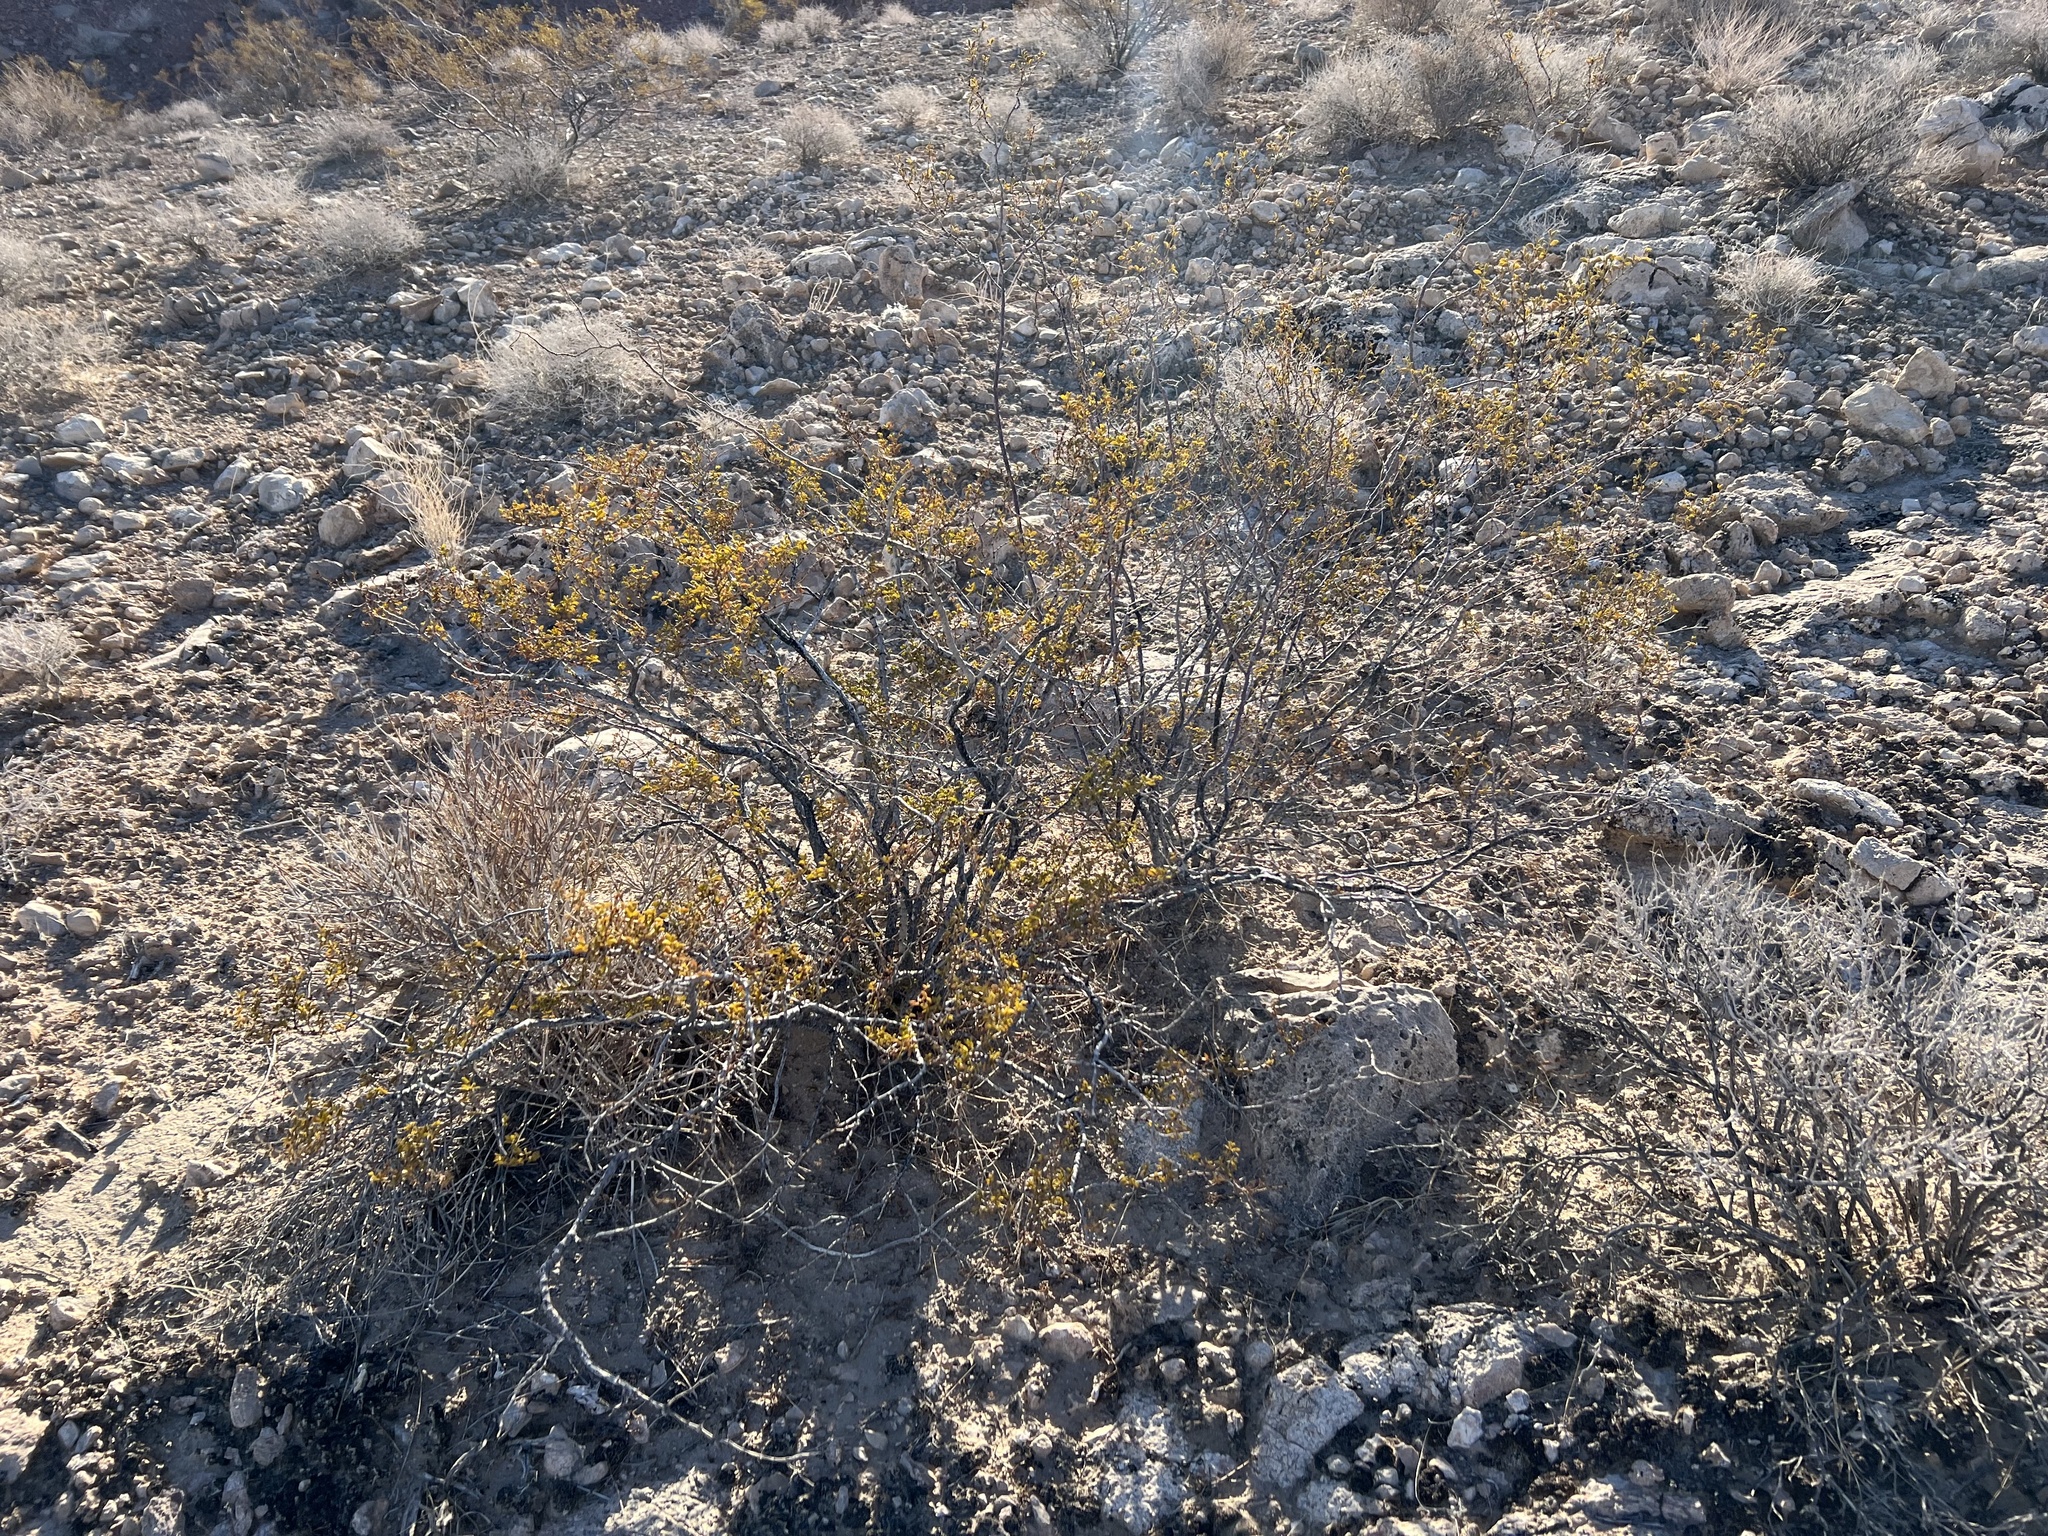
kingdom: Plantae
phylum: Tracheophyta
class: Magnoliopsida
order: Zygophyllales
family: Zygophyllaceae
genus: Larrea
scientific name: Larrea tridentata
